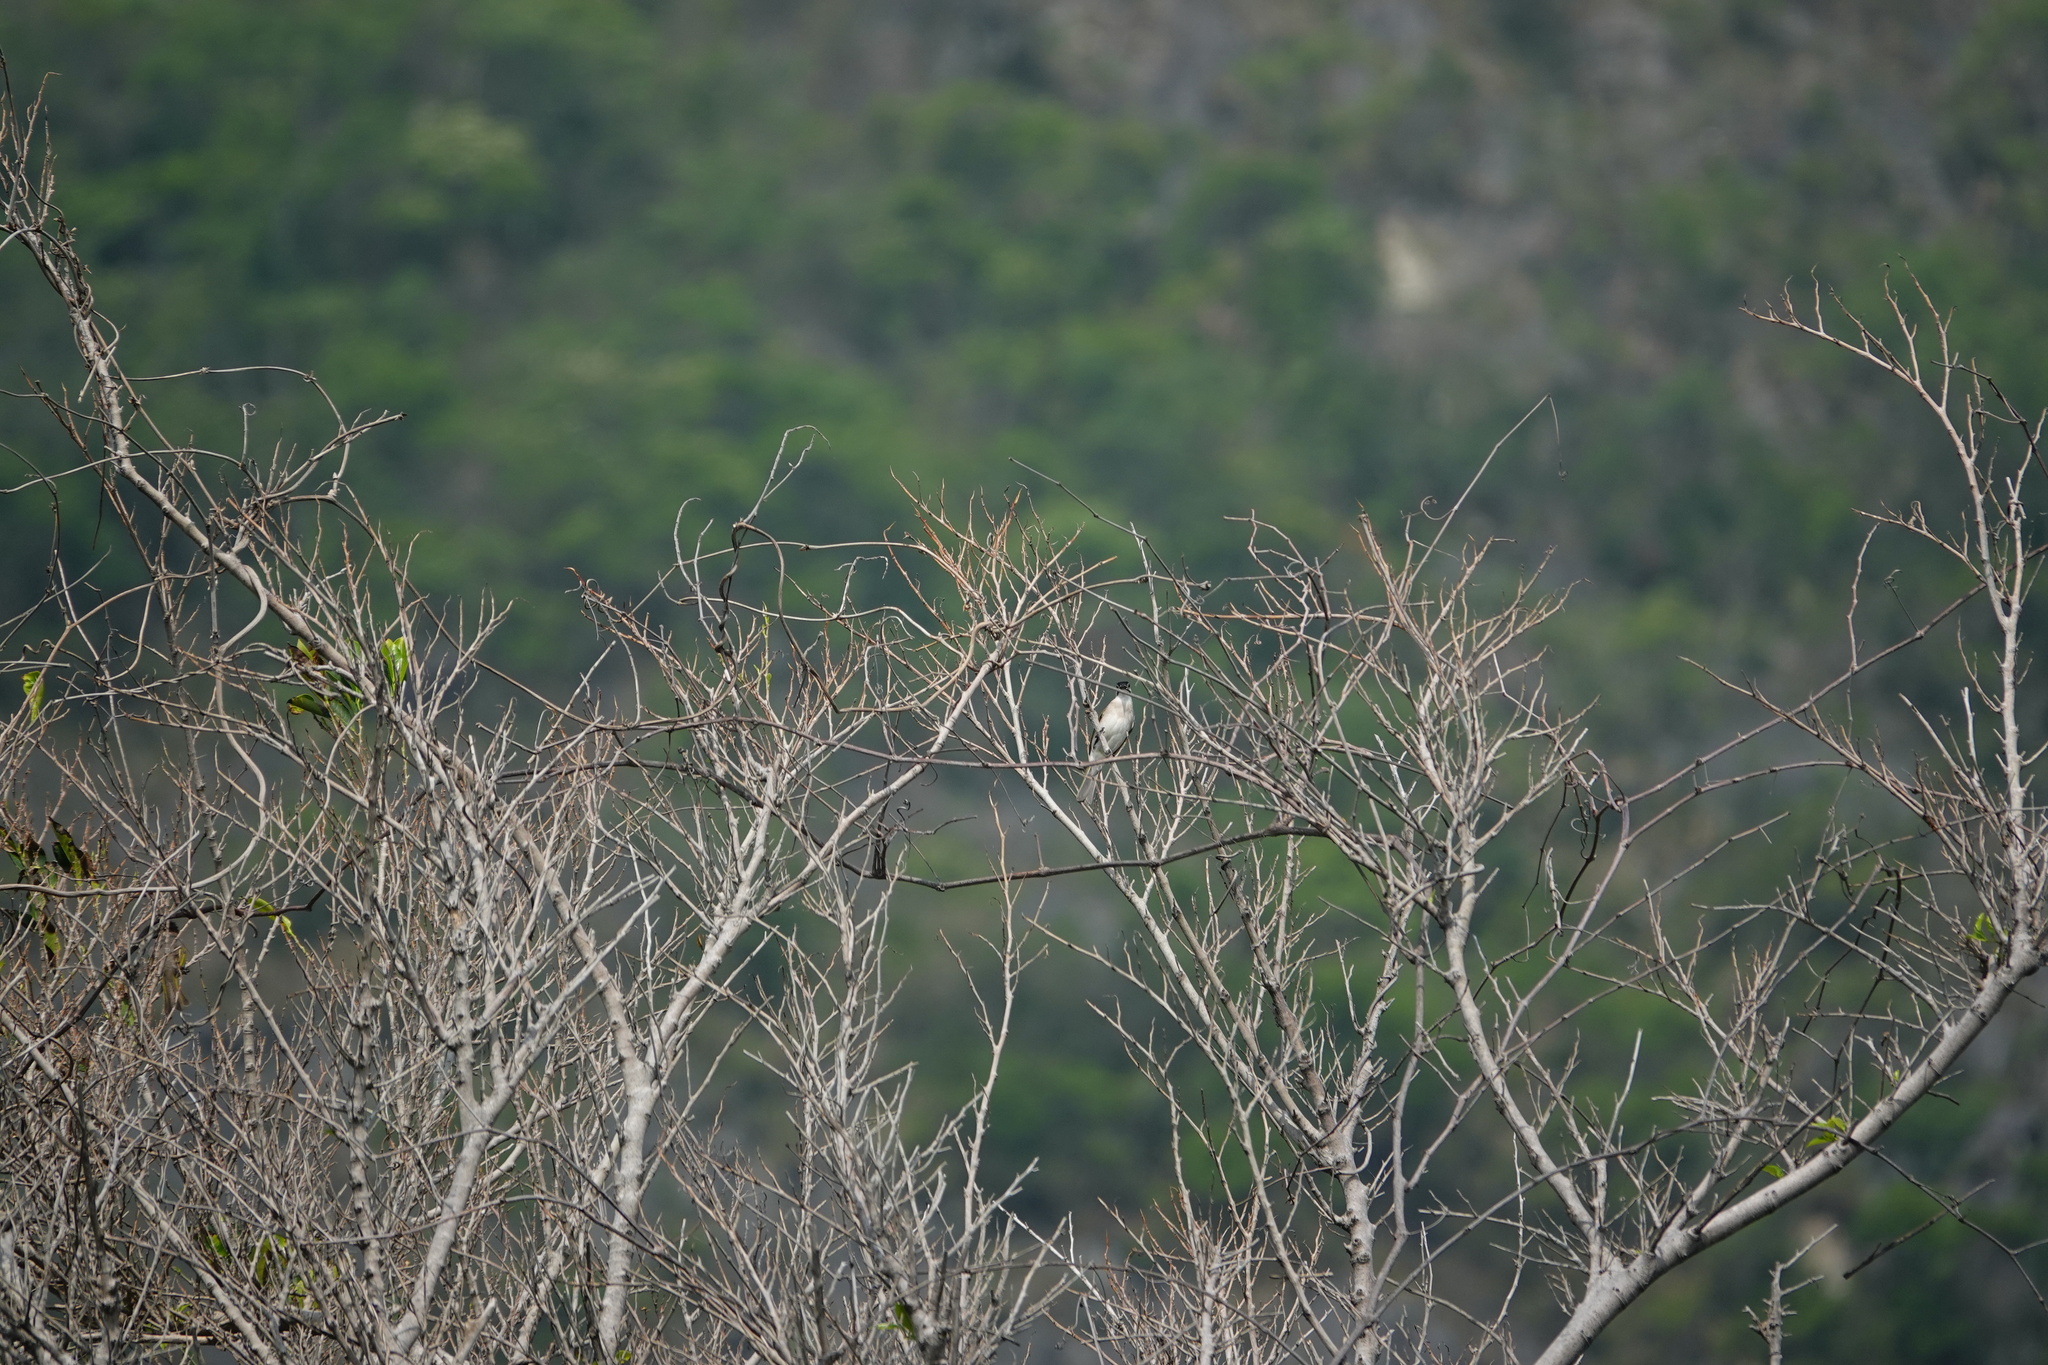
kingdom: Animalia
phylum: Chordata
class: Aves
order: Passeriformes
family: Pycnonotidae
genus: Pycnonotus
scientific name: Pycnonotus taivanus
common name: Styan's bulbul
